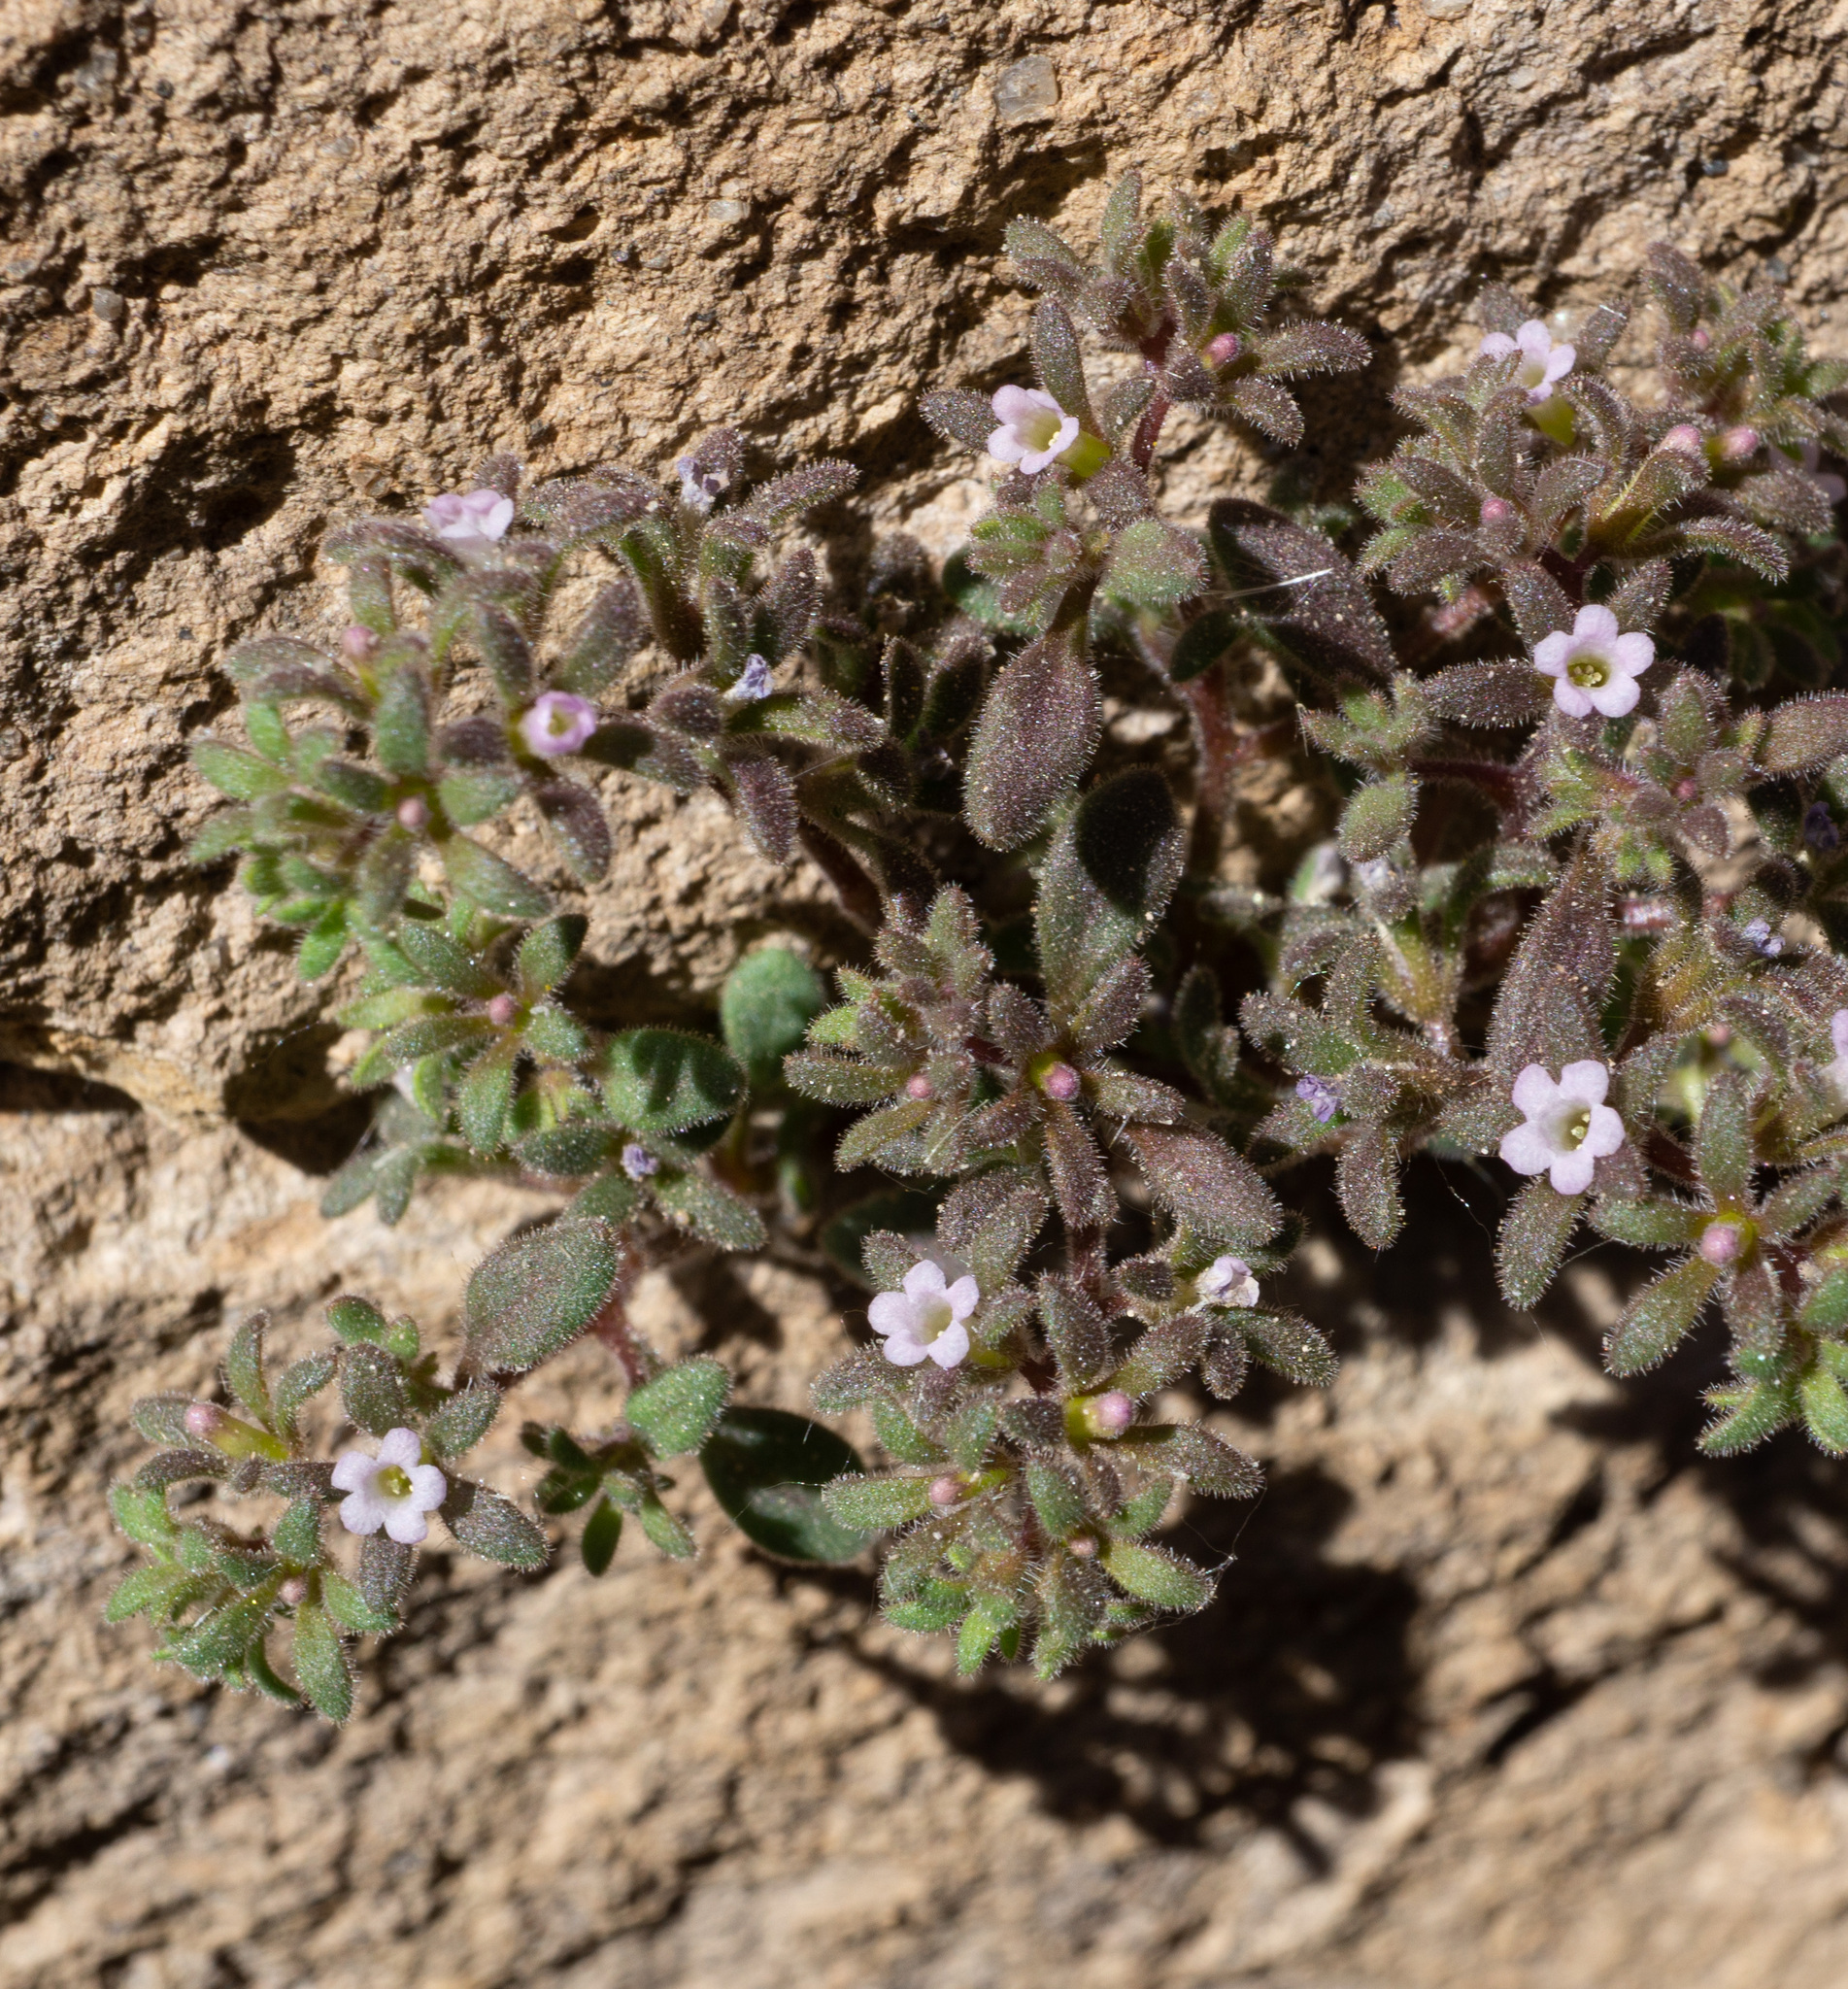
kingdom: Plantae
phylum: Tracheophyta
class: Magnoliopsida
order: Boraginales
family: Hydrophyllaceae
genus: Phacelia
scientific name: Phacelia saxicola
